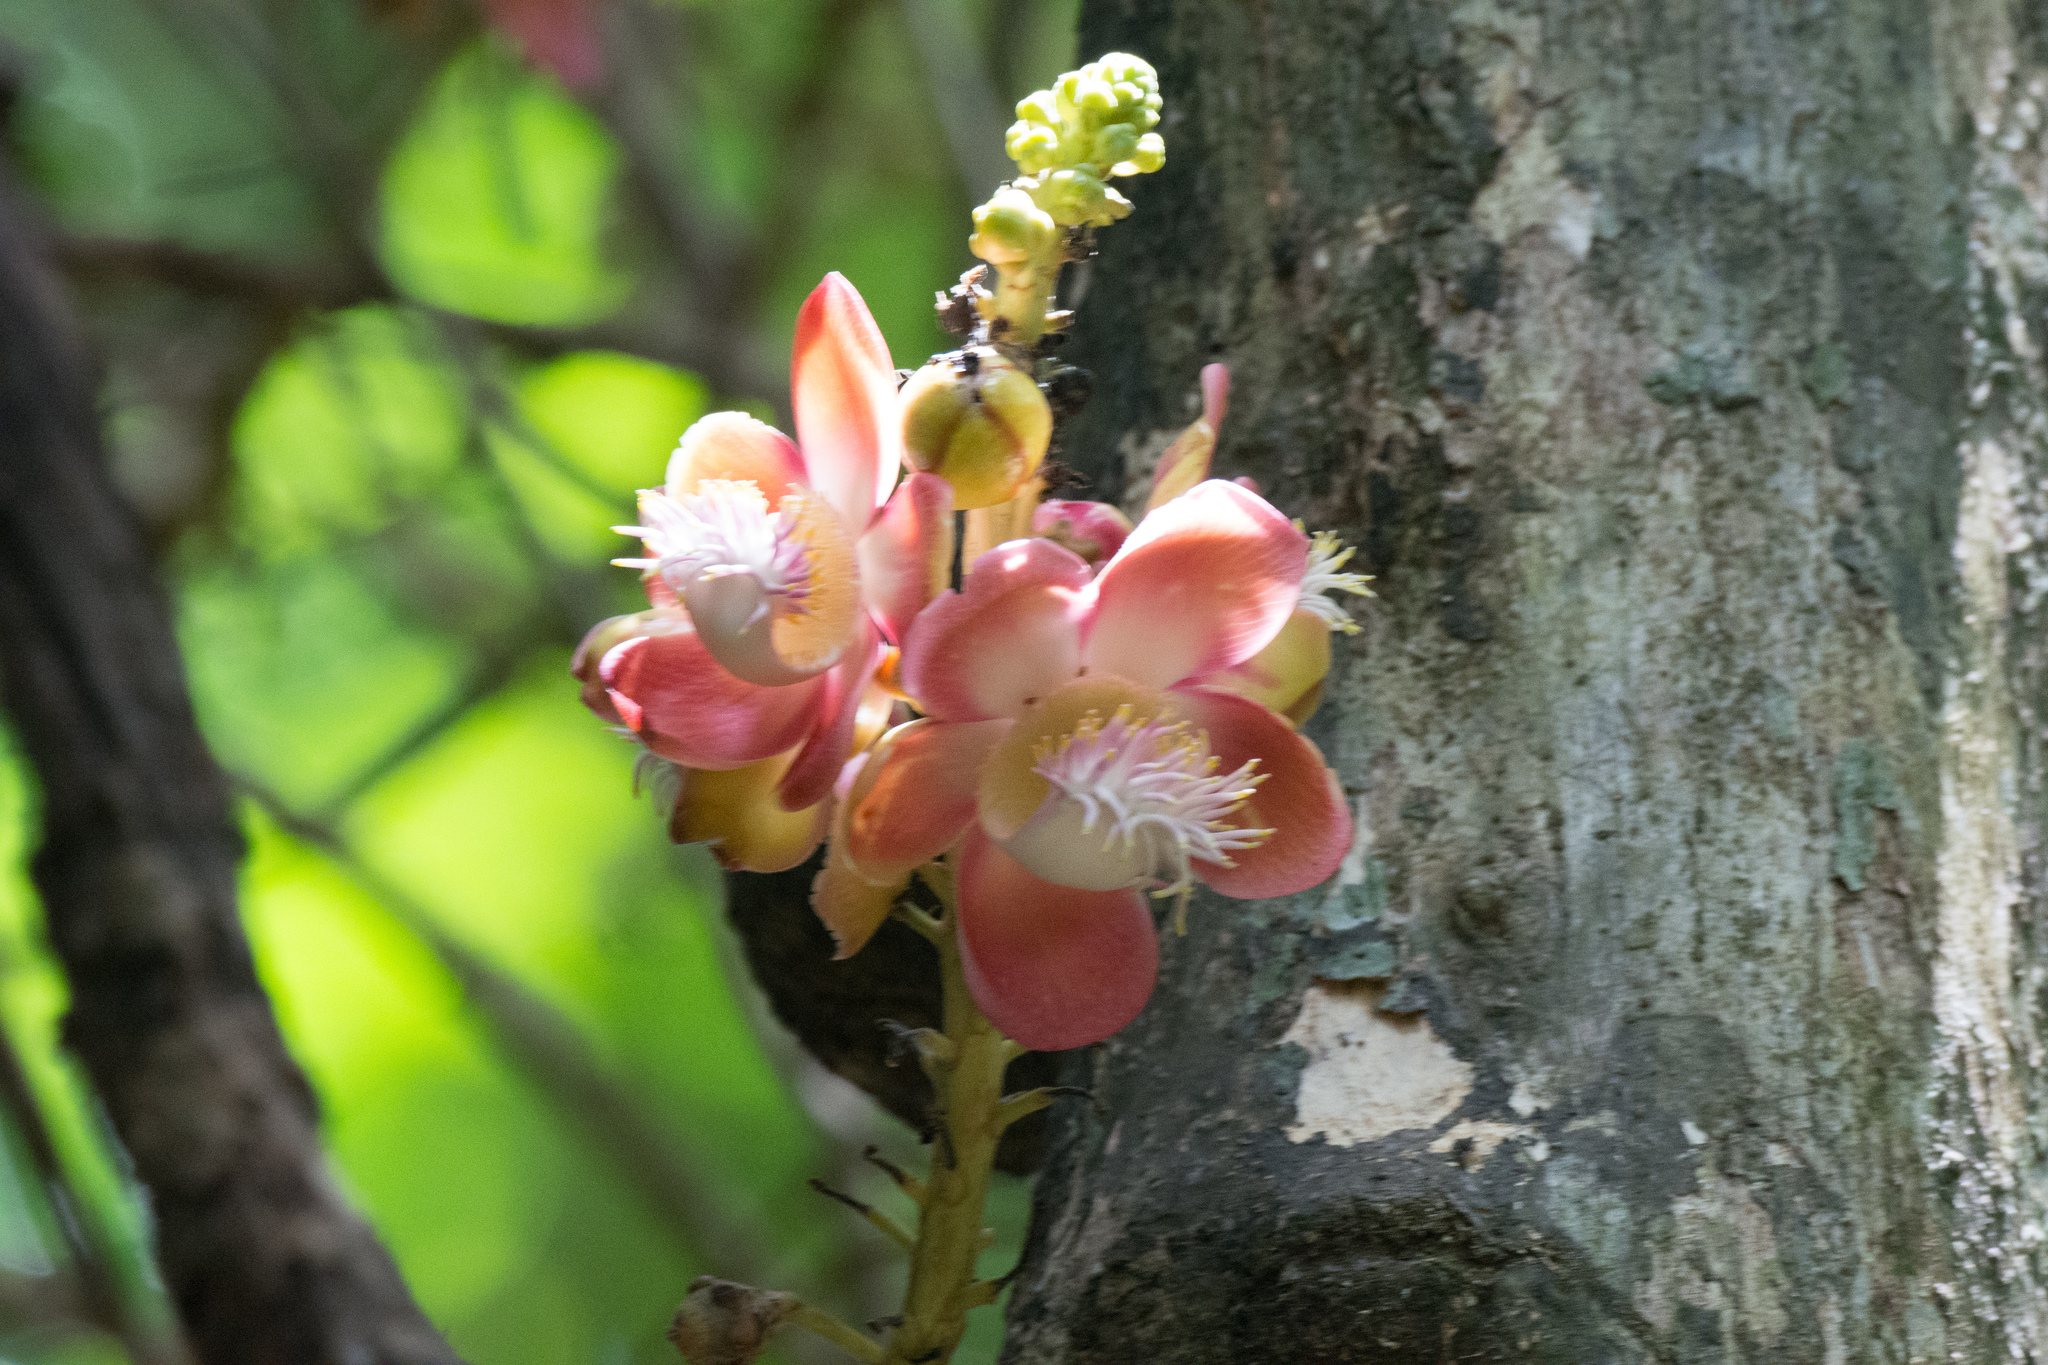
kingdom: Plantae
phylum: Tracheophyta
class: Magnoliopsida
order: Ericales
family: Lecythidaceae
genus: Couroupita
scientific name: Couroupita guianensis
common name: Cannonball tree
